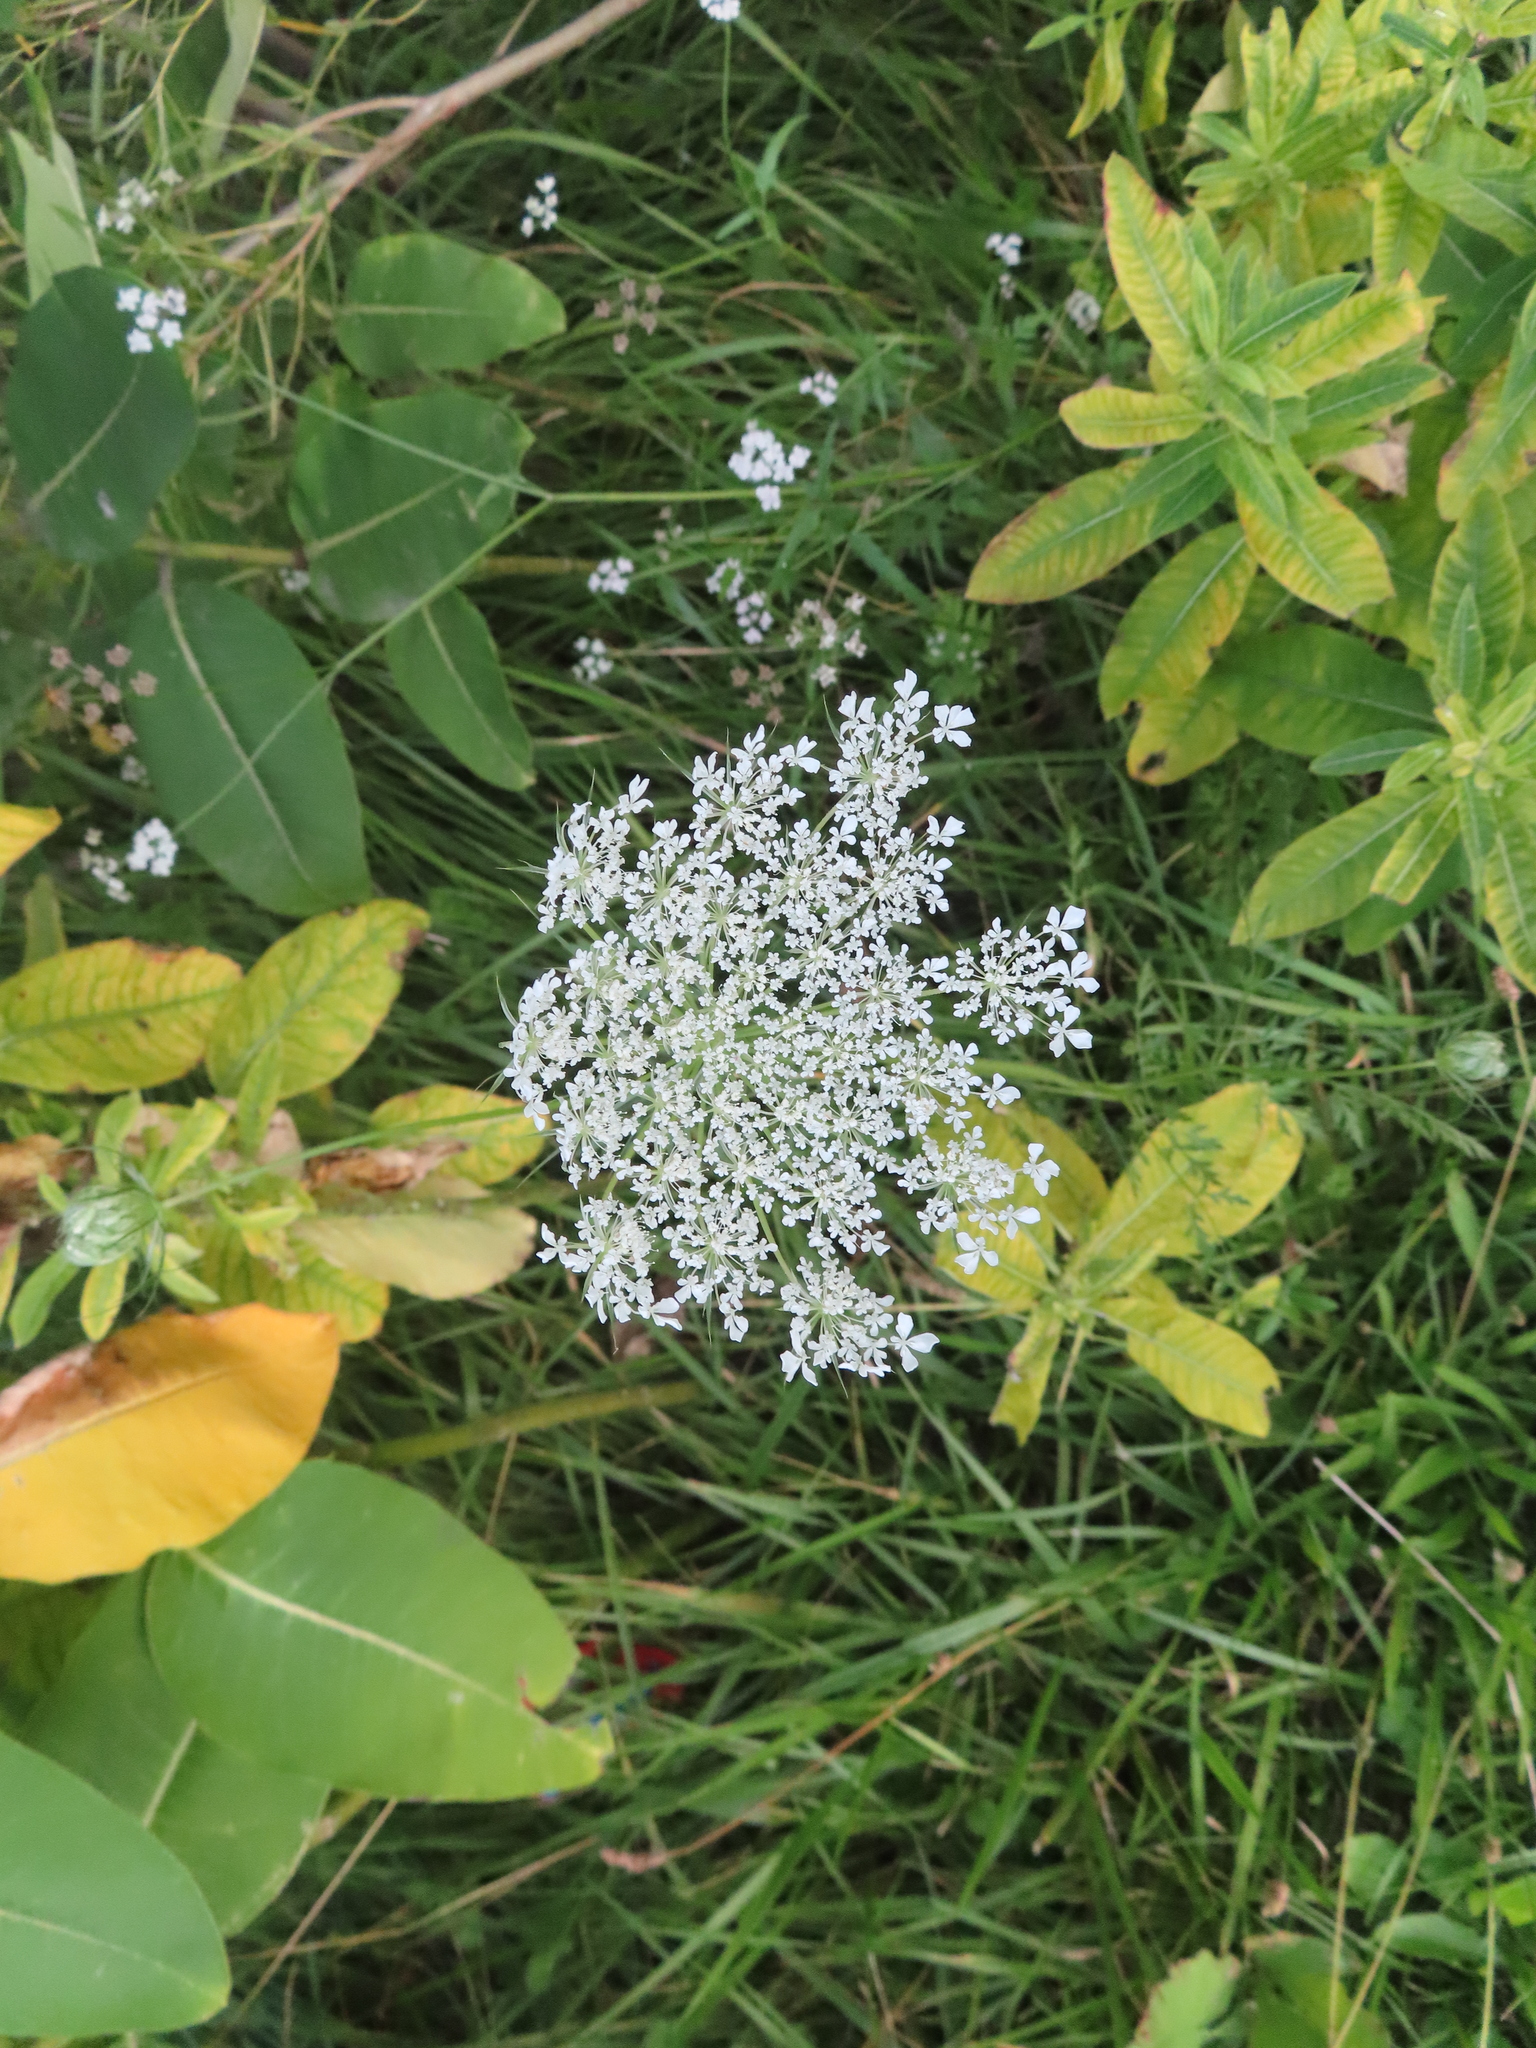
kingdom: Plantae
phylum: Tracheophyta
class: Magnoliopsida
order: Apiales
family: Apiaceae
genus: Daucus
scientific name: Daucus carota
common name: Wild carrot
